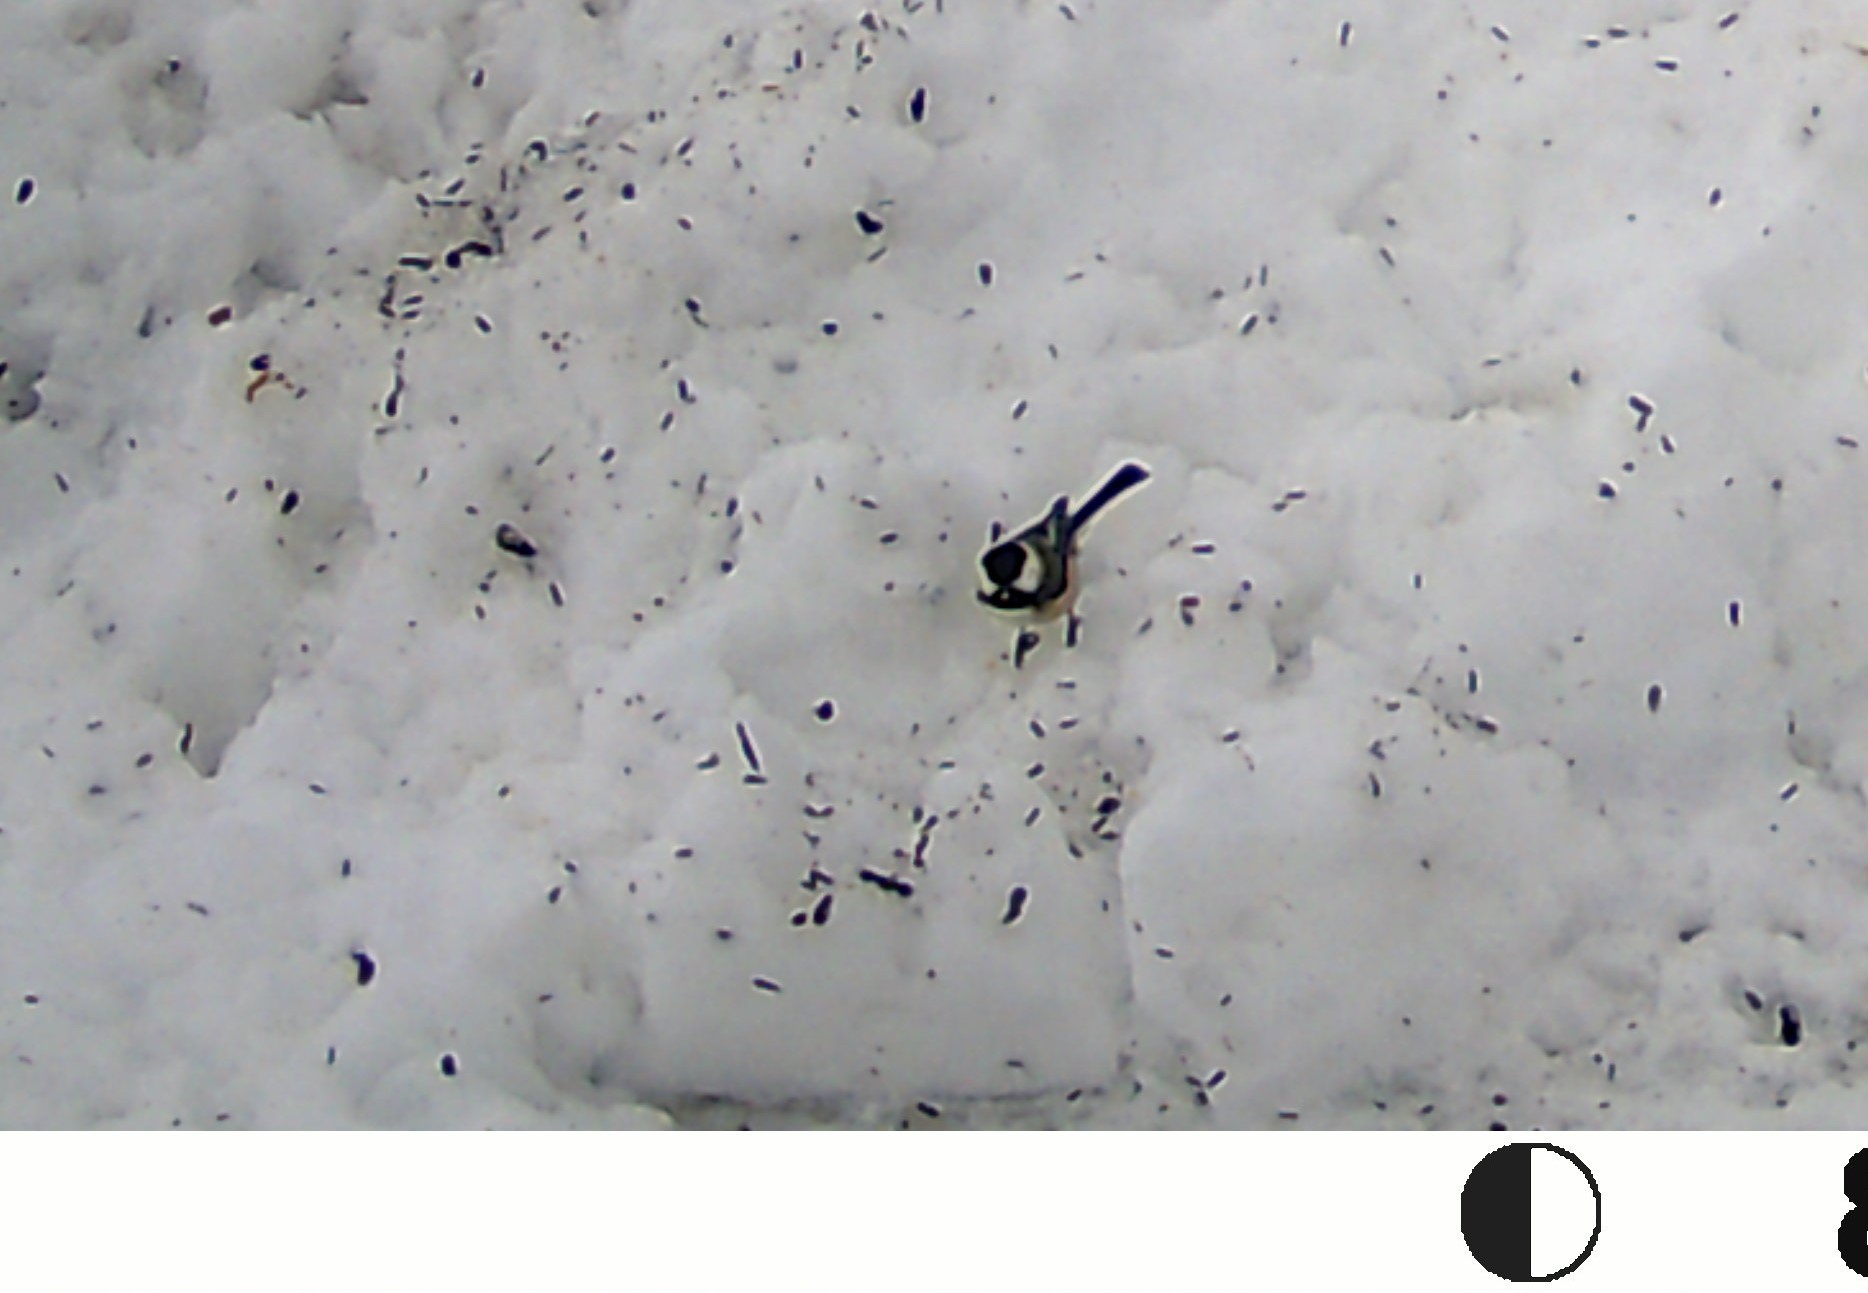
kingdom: Animalia
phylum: Chordata
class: Aves
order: Passeriformes
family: Paridae
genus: Poecile
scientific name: Poecile atricapillus
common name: Black-capped chickadee
